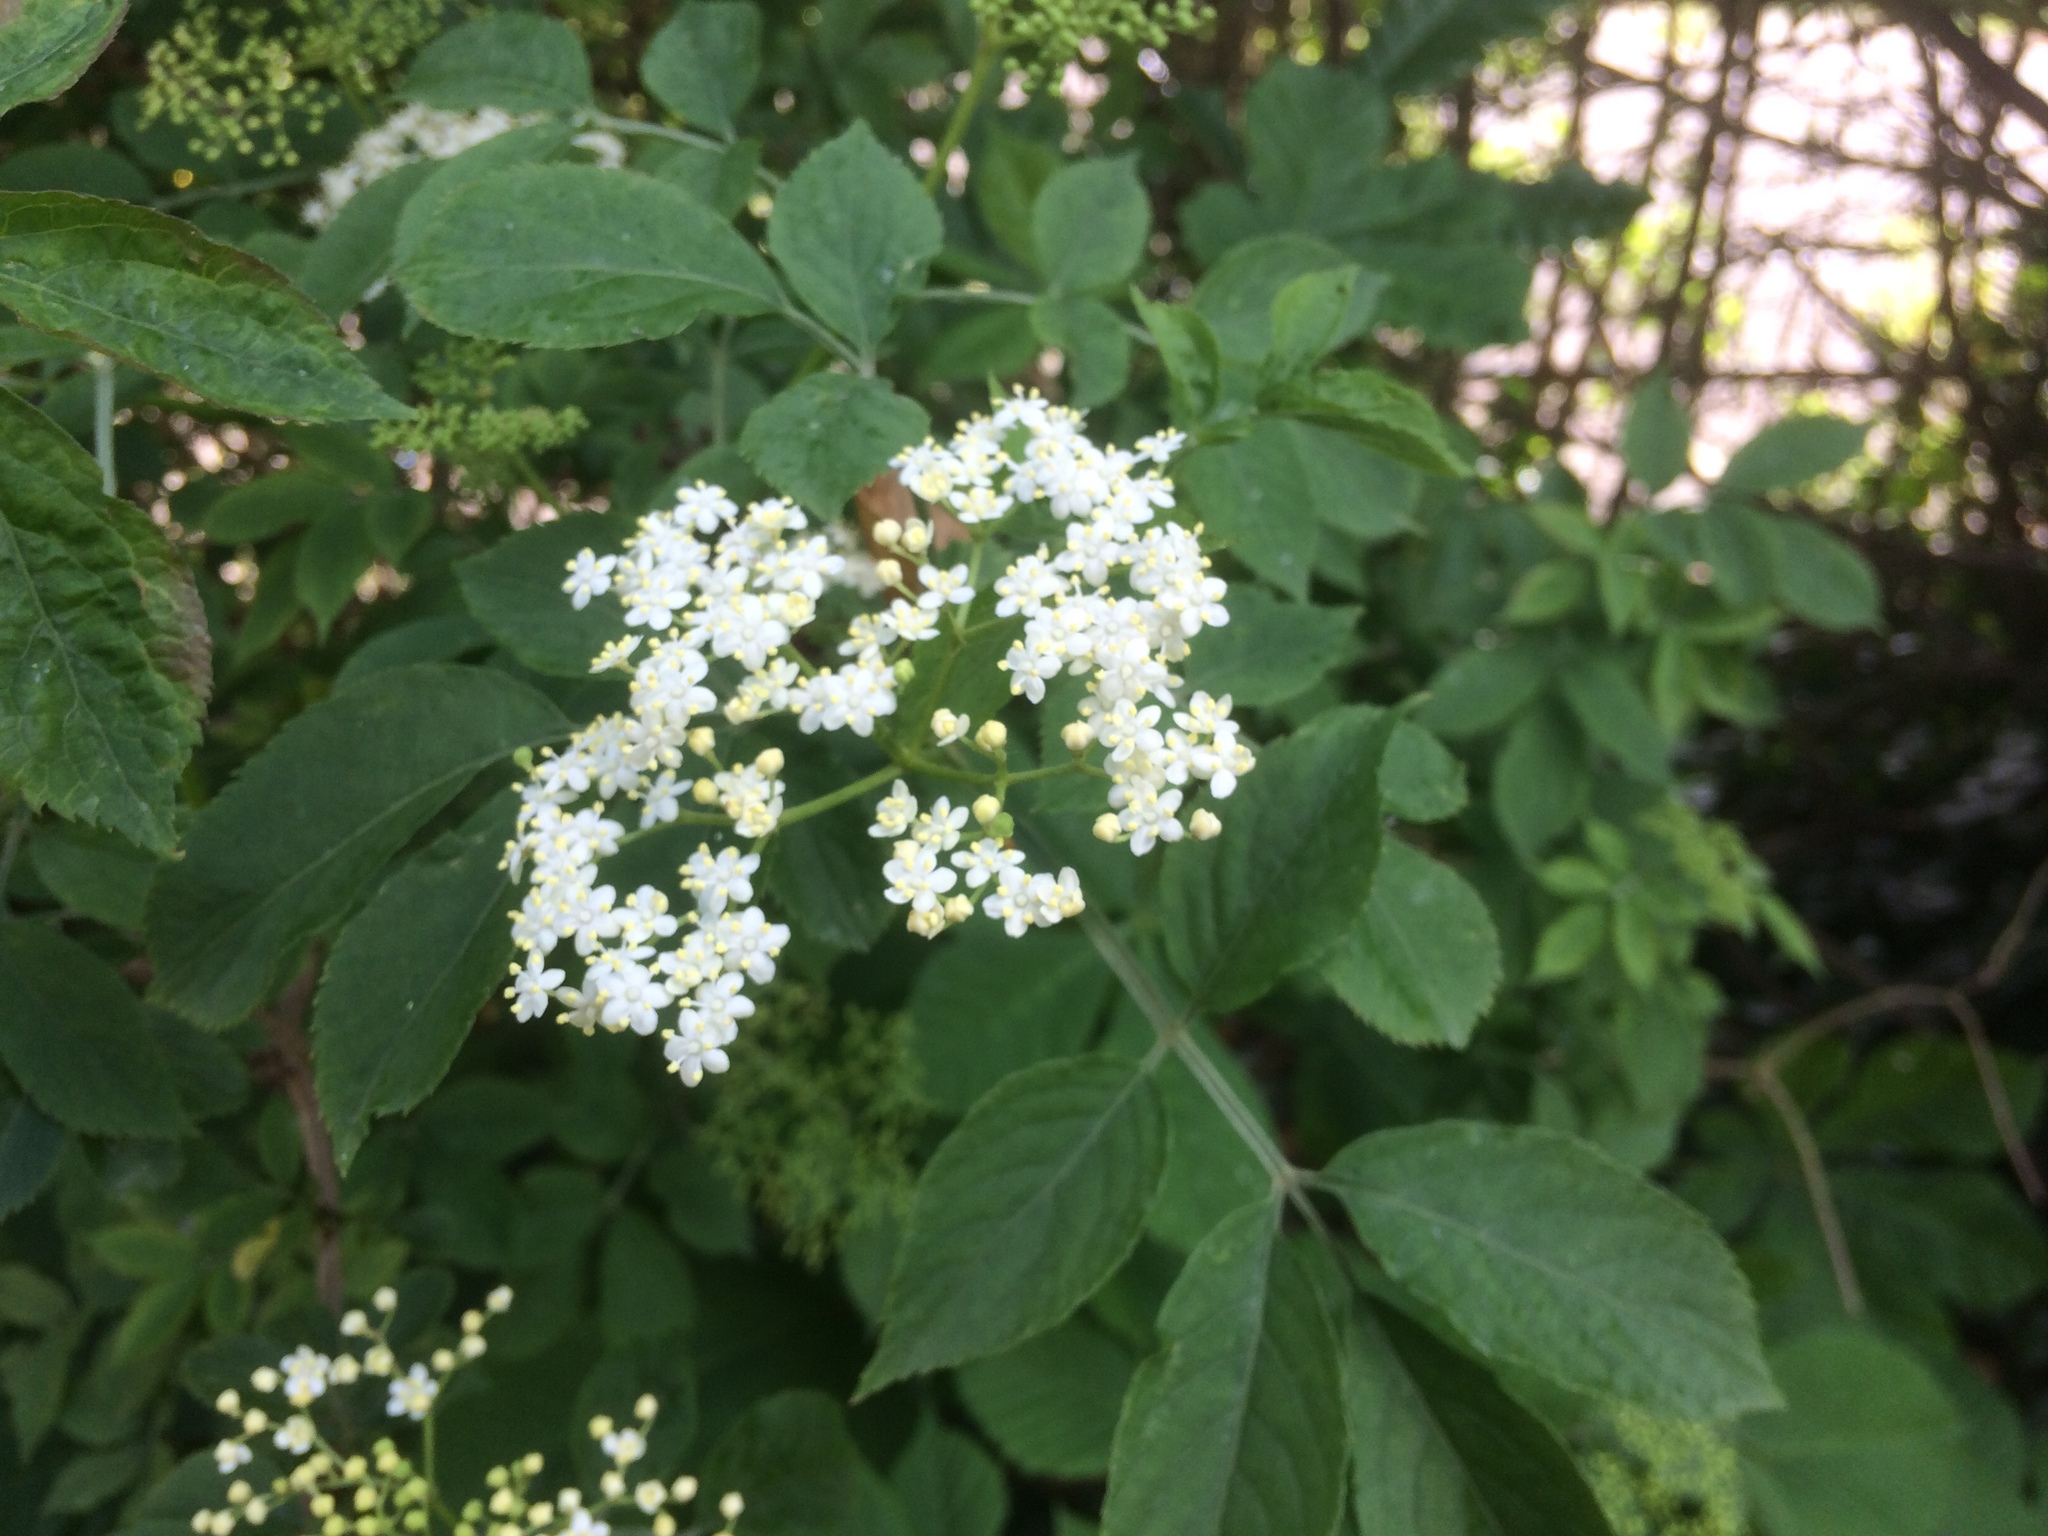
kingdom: Plantae
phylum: Tracheophyta
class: Magnoliopsida
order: Dipsacales
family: Viburnaceae
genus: Sambucus
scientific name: Sambucus nigra
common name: Elder
